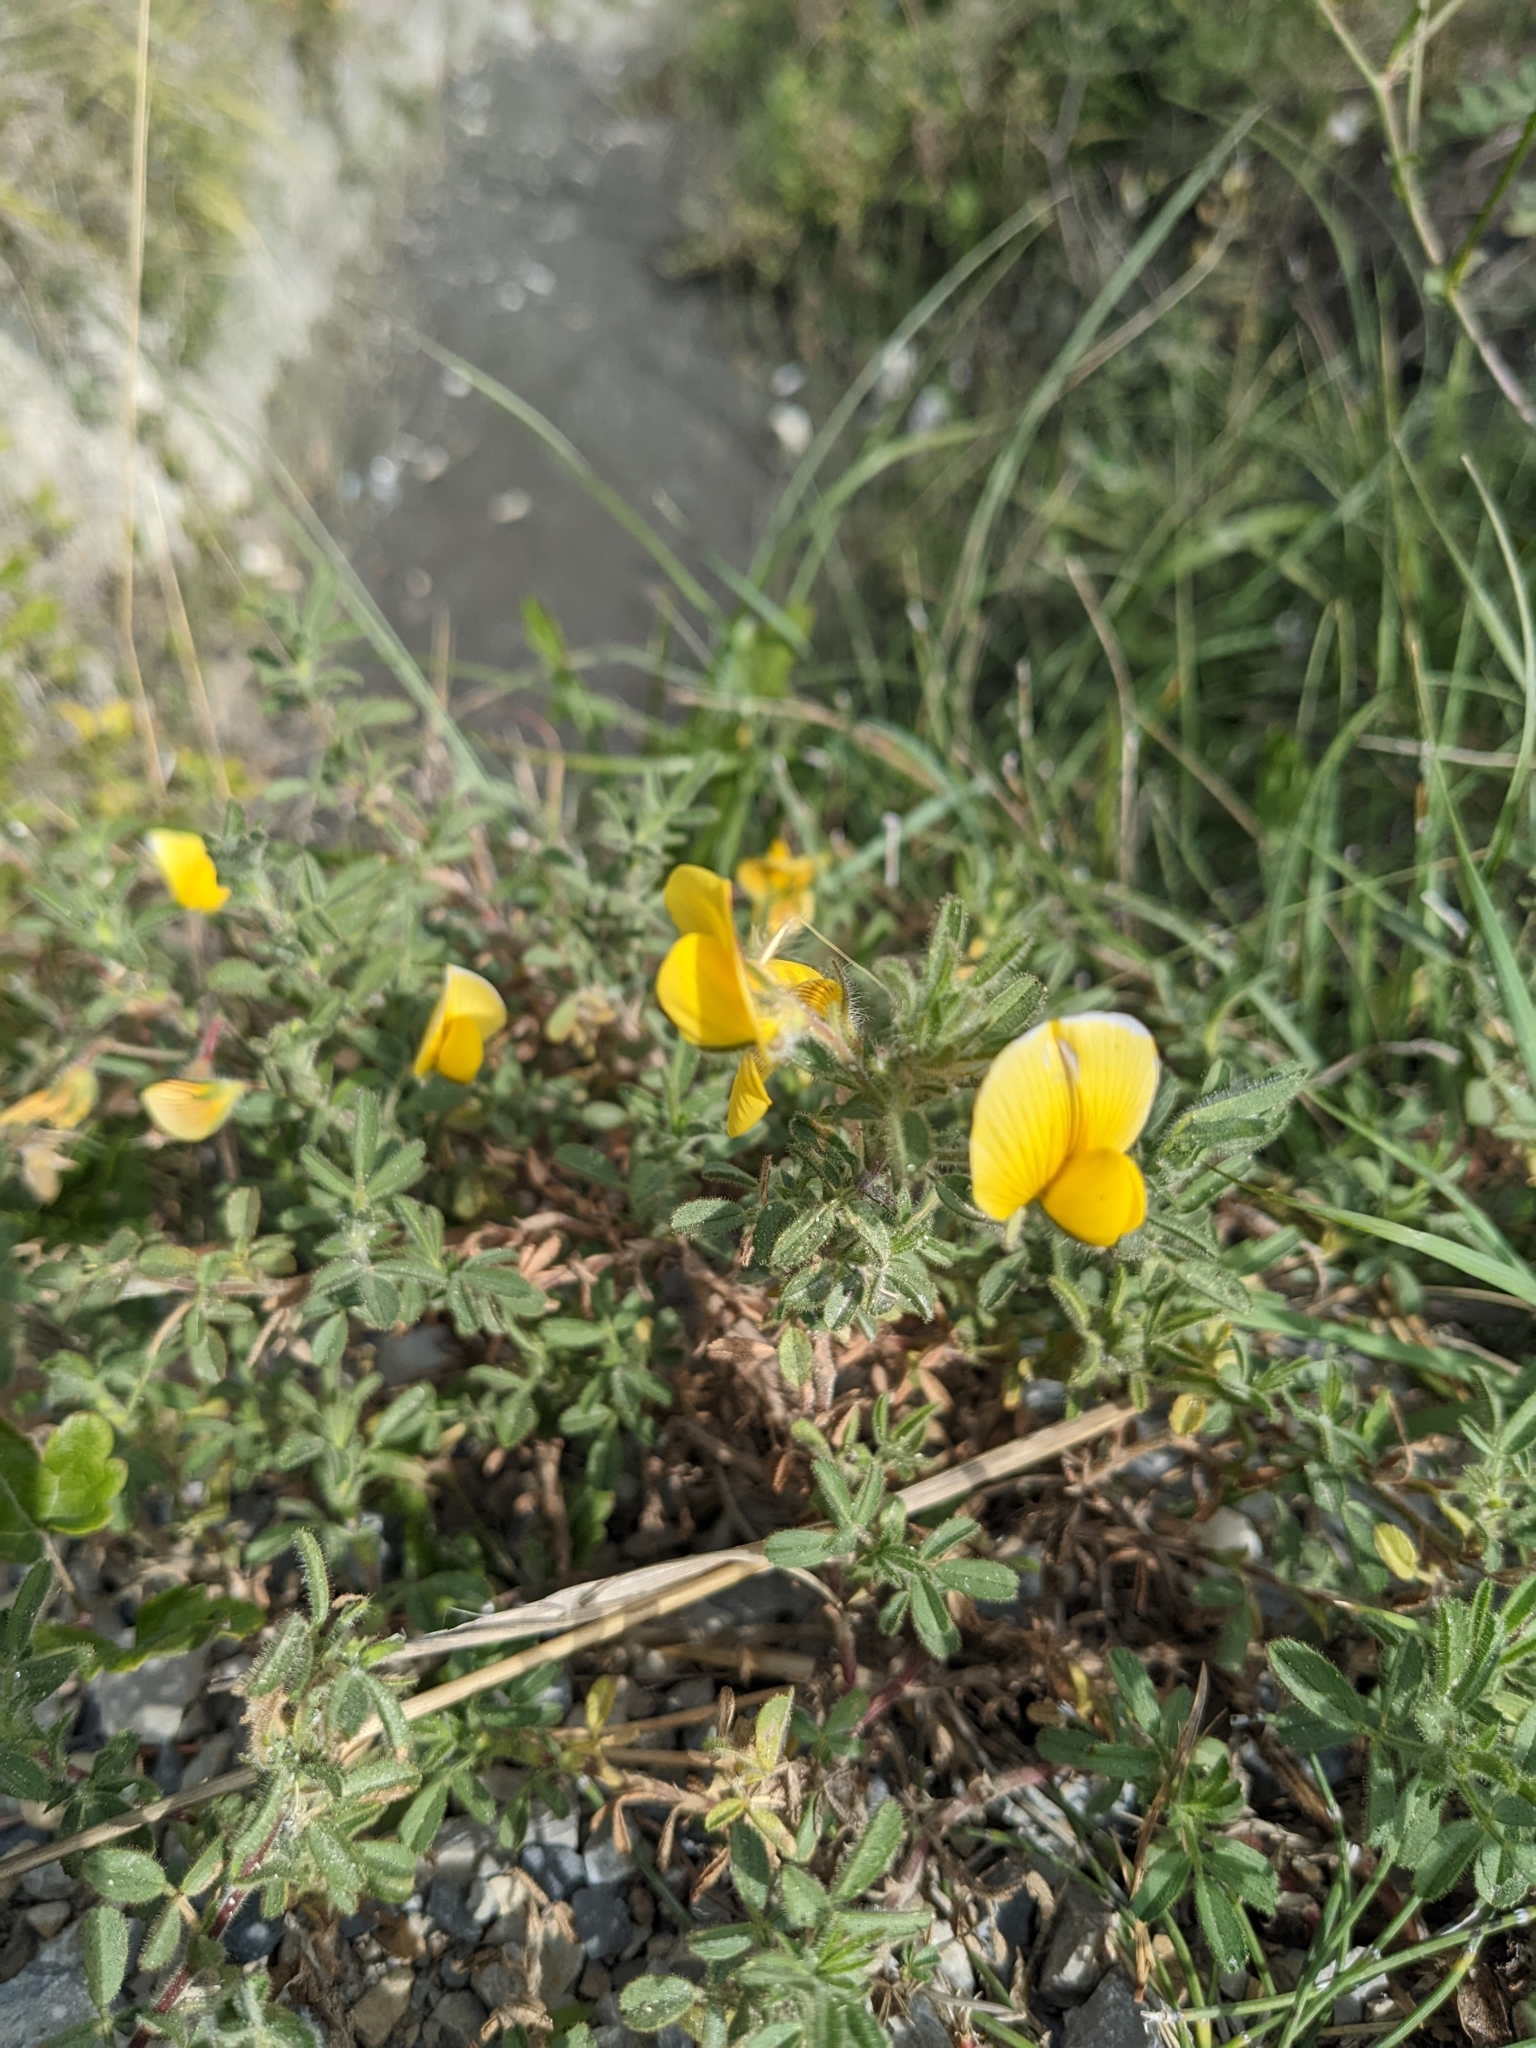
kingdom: Plantae
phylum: Tracheophyta
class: Magnoliopsida
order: Fabales
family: Fabaceae
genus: Ononis
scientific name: Ononis natrix
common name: Yellow restharrow
